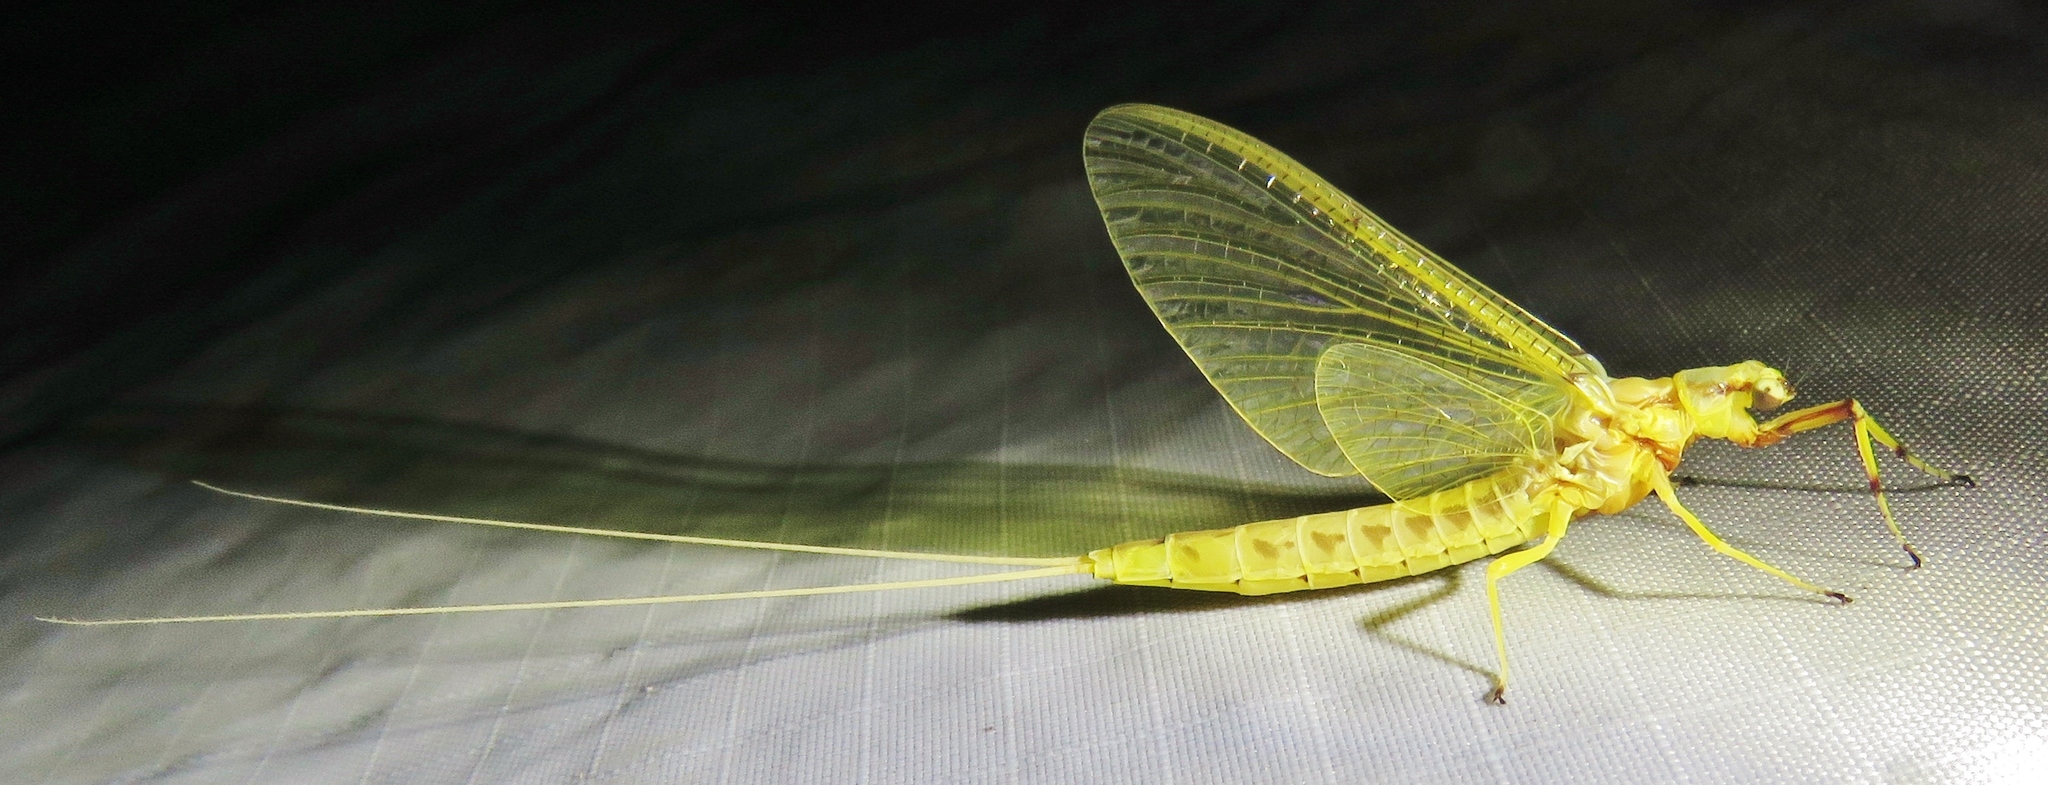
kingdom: Animalia
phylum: Arthropoda
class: Insecta
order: Ephemeroptera
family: Ephemeridae
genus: Hexagenia
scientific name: Hexagenia limbata
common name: Giant mayfly
